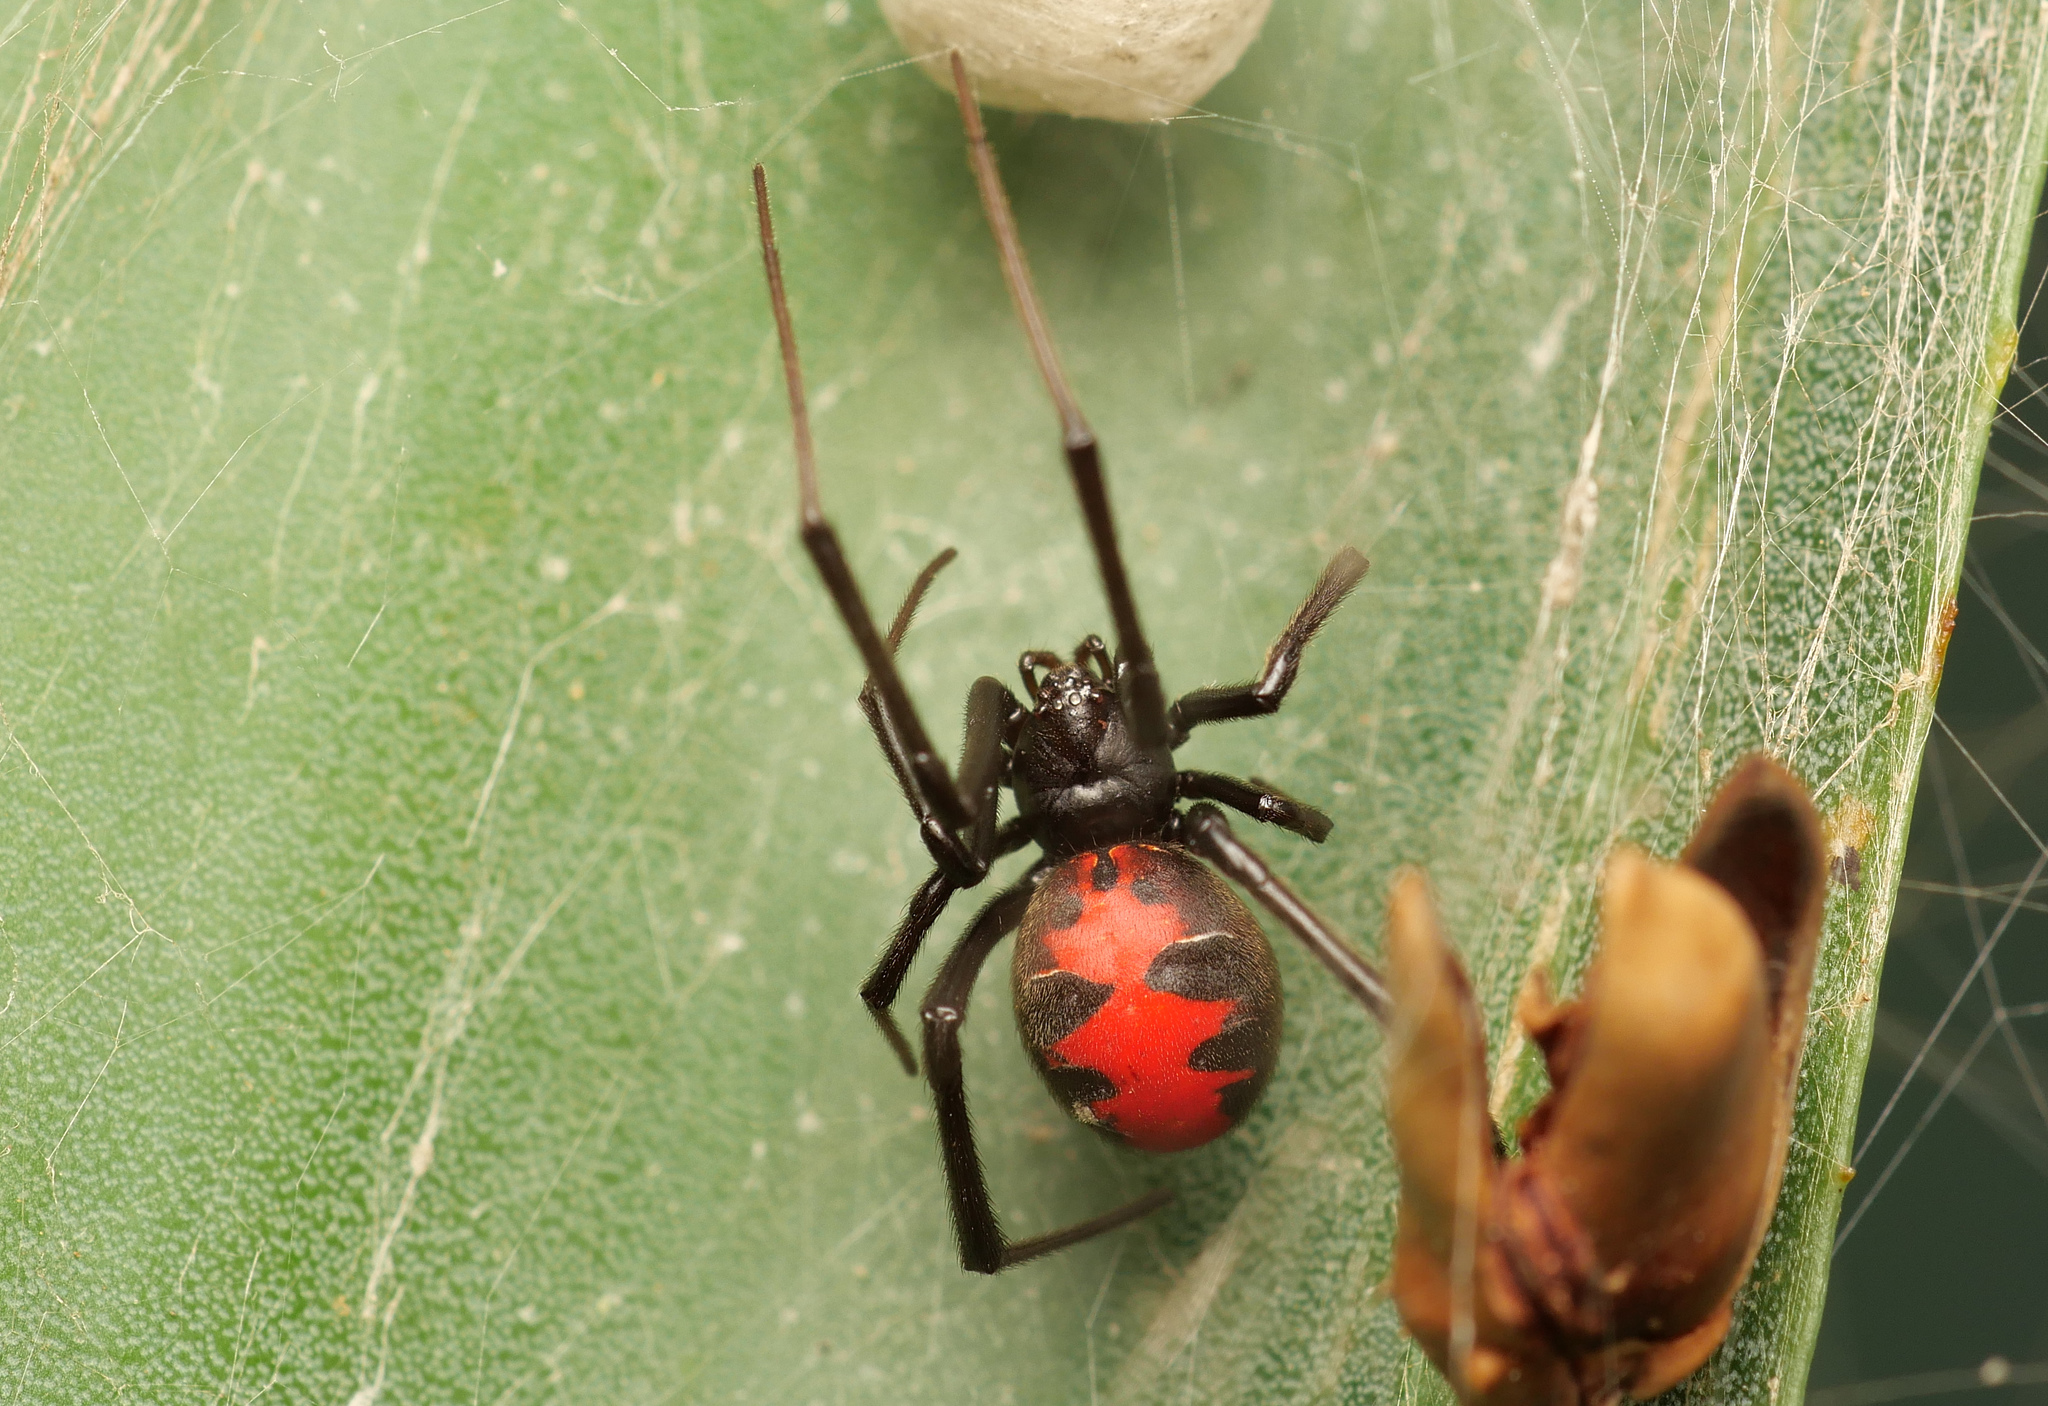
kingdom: Animalia
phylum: Arthropoda
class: Arachnida
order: Araneae
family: Theridiidae
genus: Latrodectus
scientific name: Latrodectus elegans
